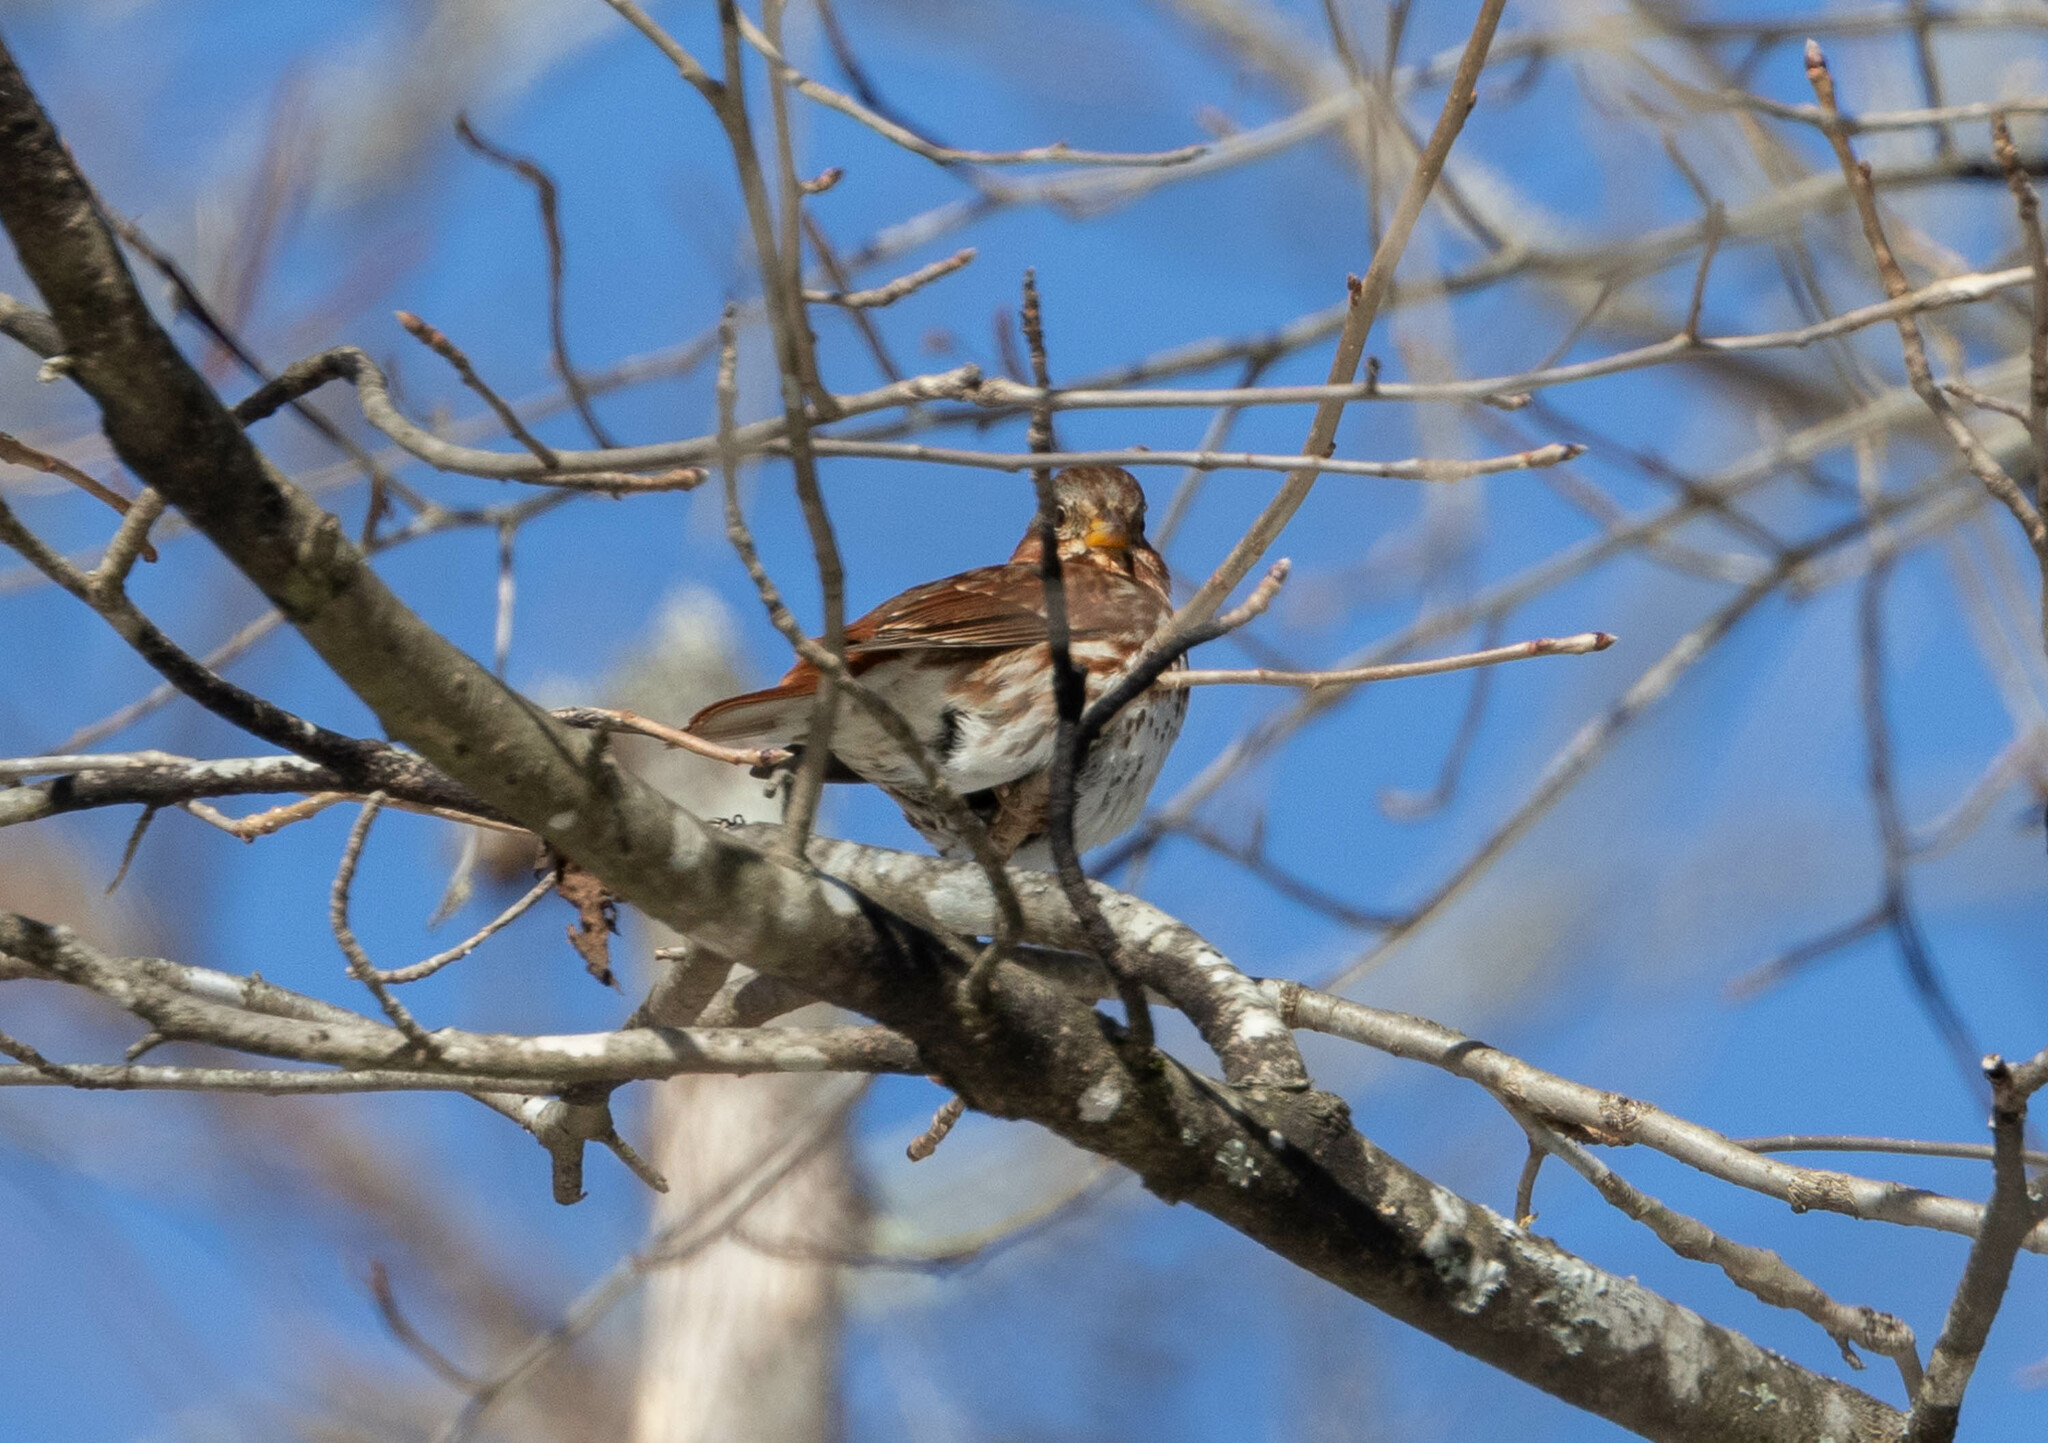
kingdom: Animalia
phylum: Chordata
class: Aves
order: Passeriformes
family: Passerellidae
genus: Passerella
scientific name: Passerella iliaca
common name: Fox sparrow
